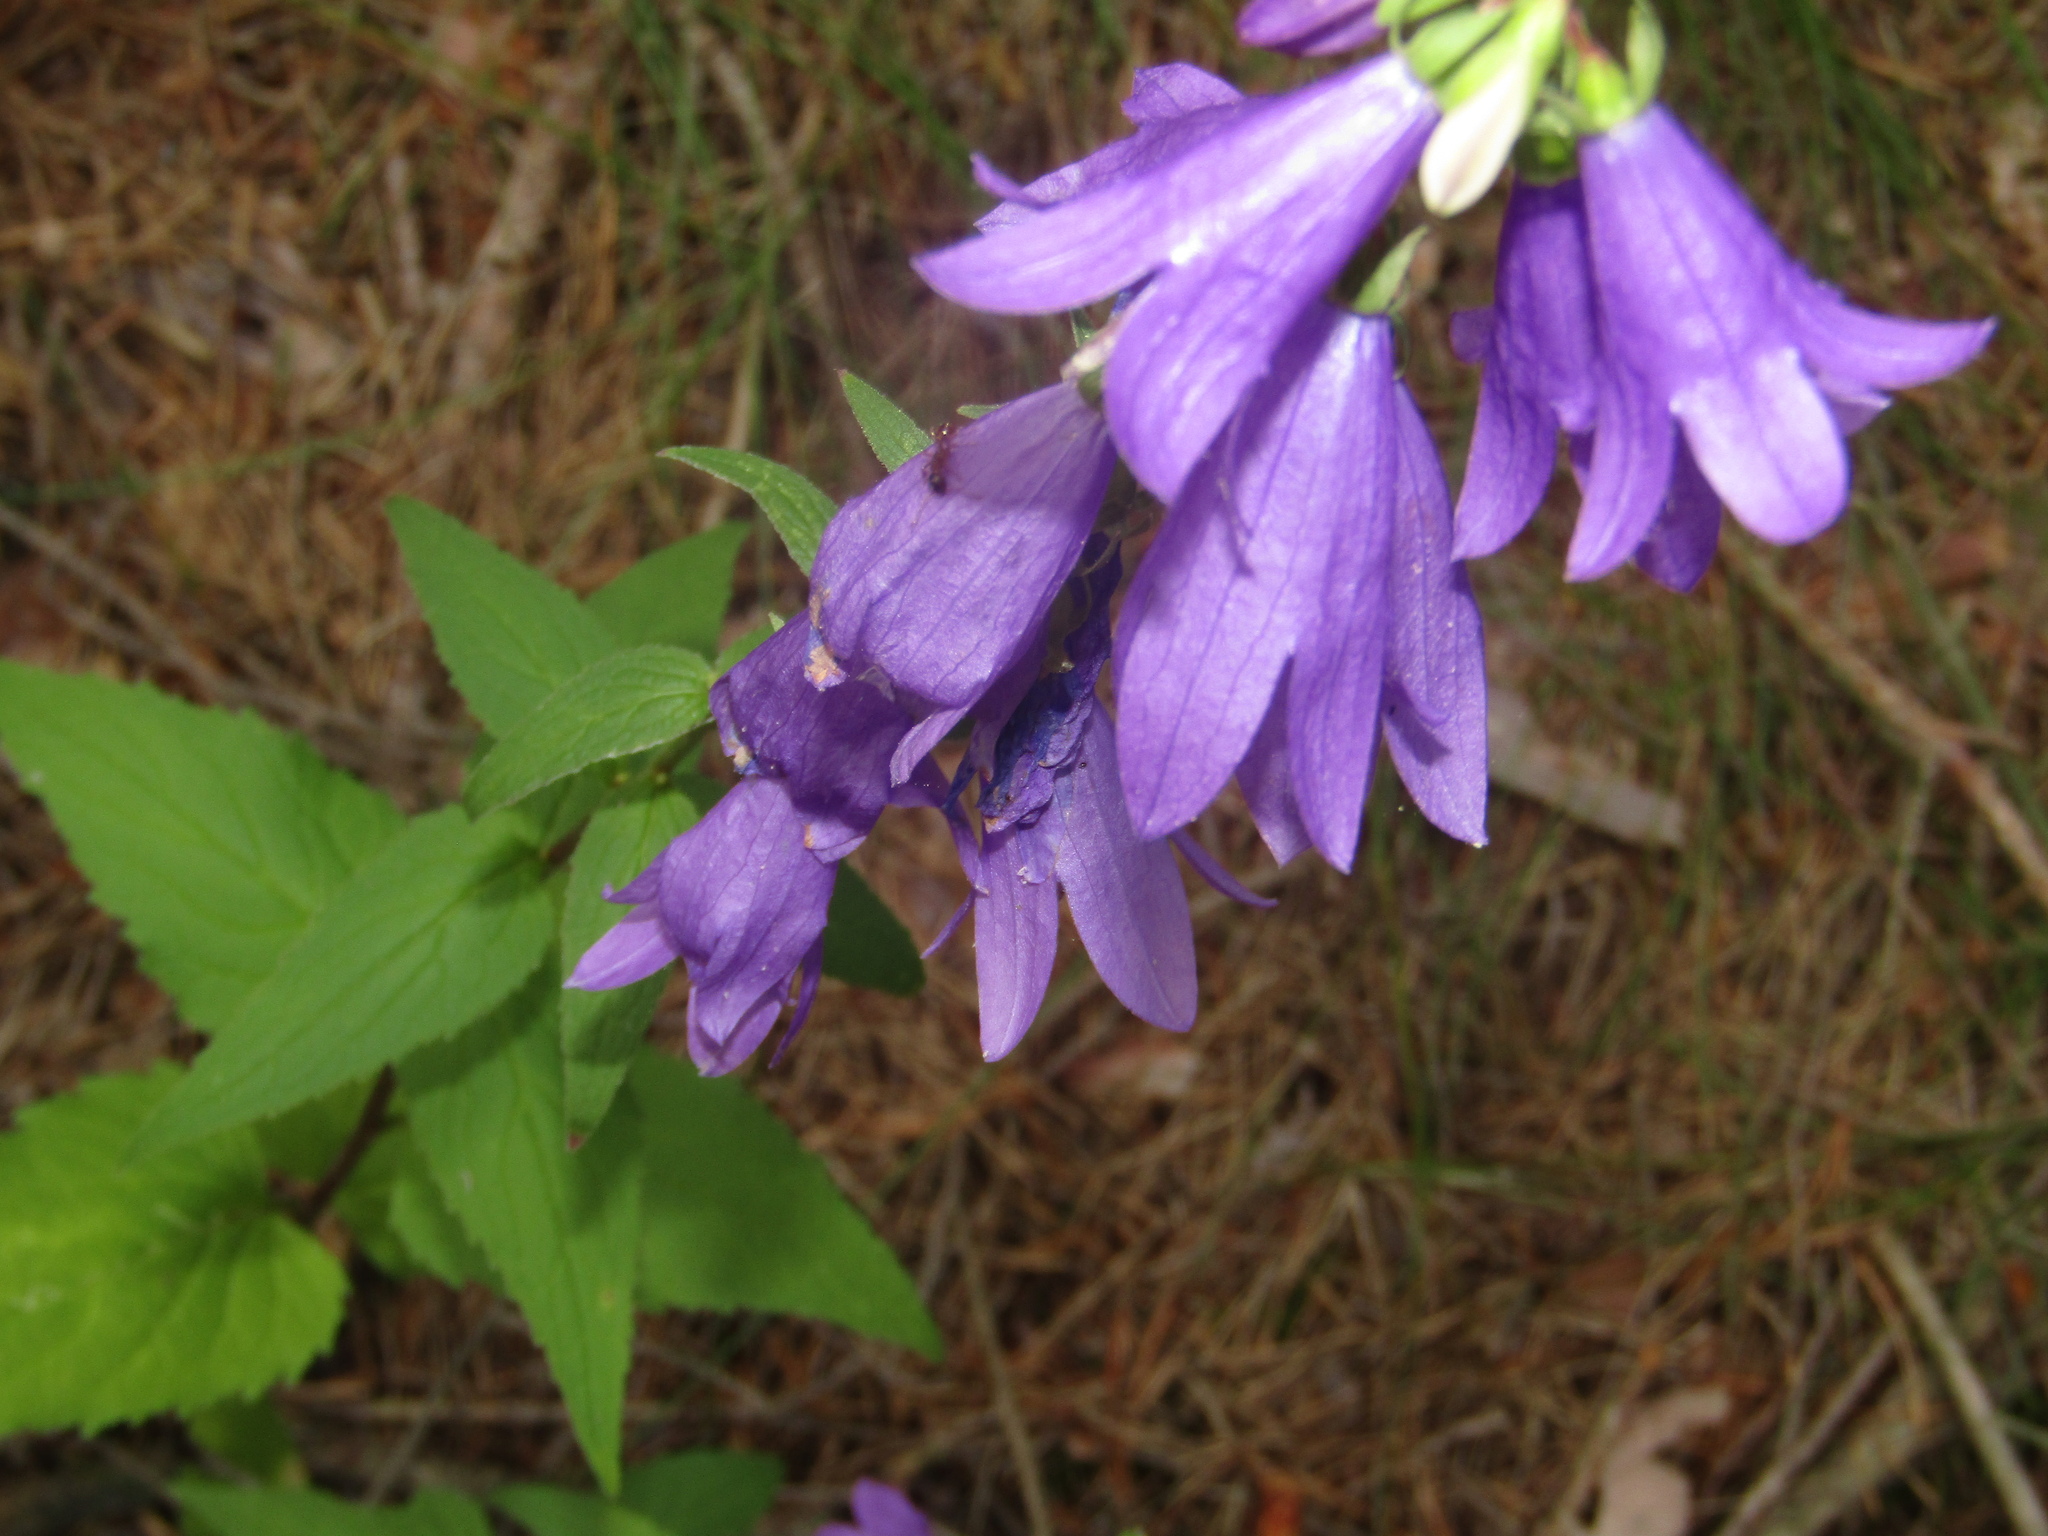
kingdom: Plantae
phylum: Tracheophyta
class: Magnoliopsida
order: Asterales
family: Campanulaceae
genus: Campanula
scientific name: Campanula rapunculoides
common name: Creeping bellflower
